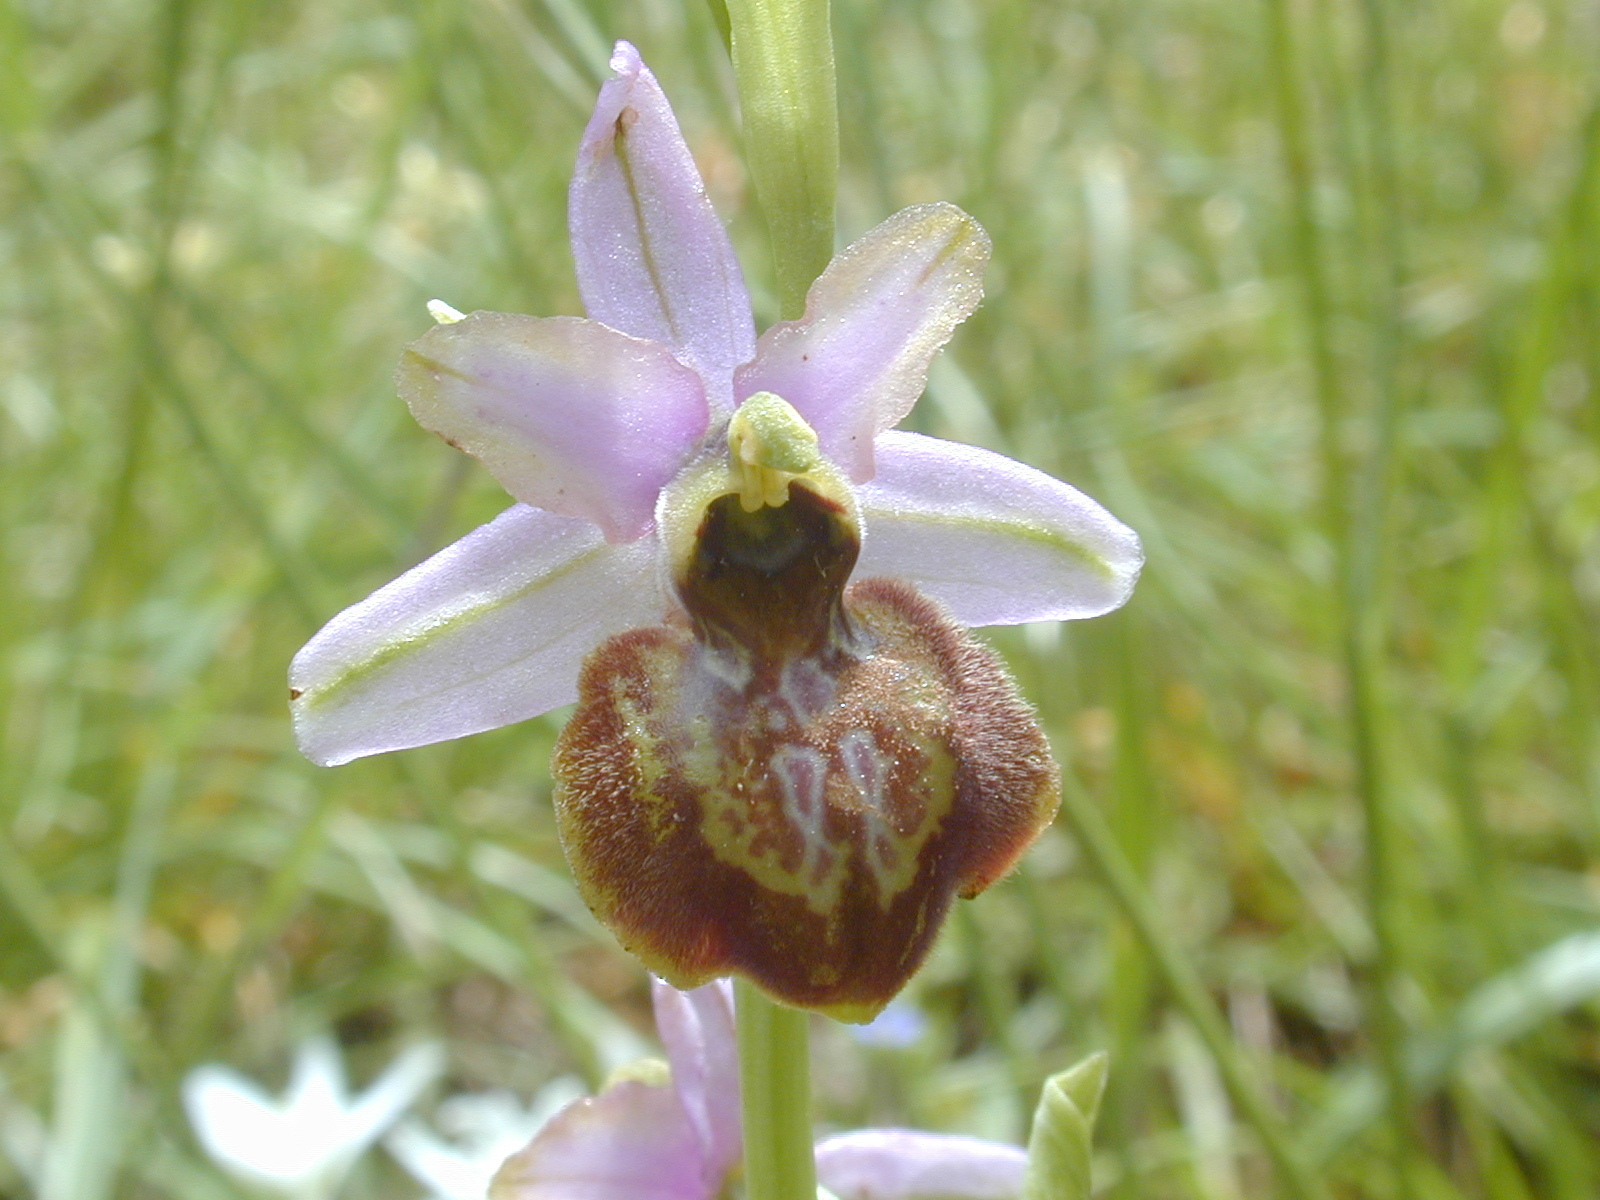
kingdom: Plantae
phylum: Tracheophyta
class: Liliopsida
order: Asparagales
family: Orchidaceae
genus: Ophrys
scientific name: Ophrys sphegodes
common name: Early spider-orchid
